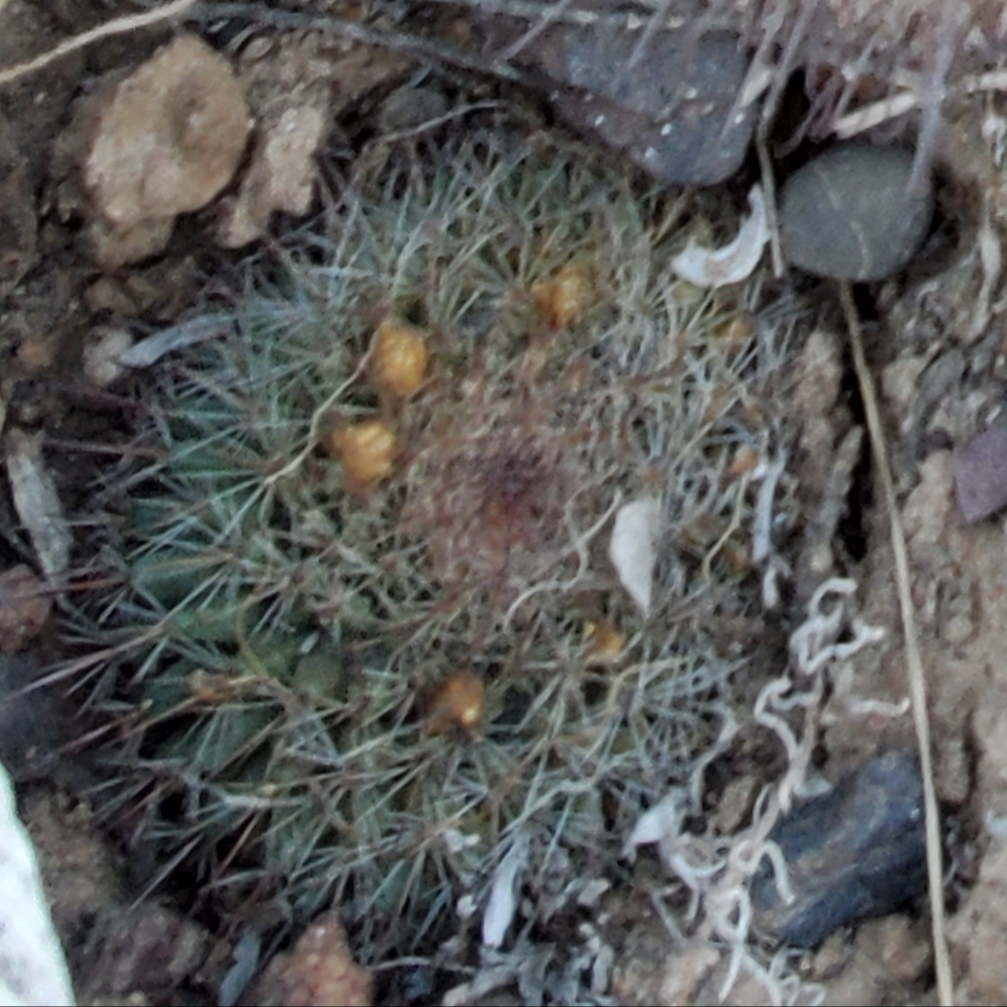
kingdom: Plantae
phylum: Tracheophyta
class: Magnoliopsida
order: Caryophyllales
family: Cactaceae
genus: Mammillaria
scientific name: Mammillaria brandegeei
